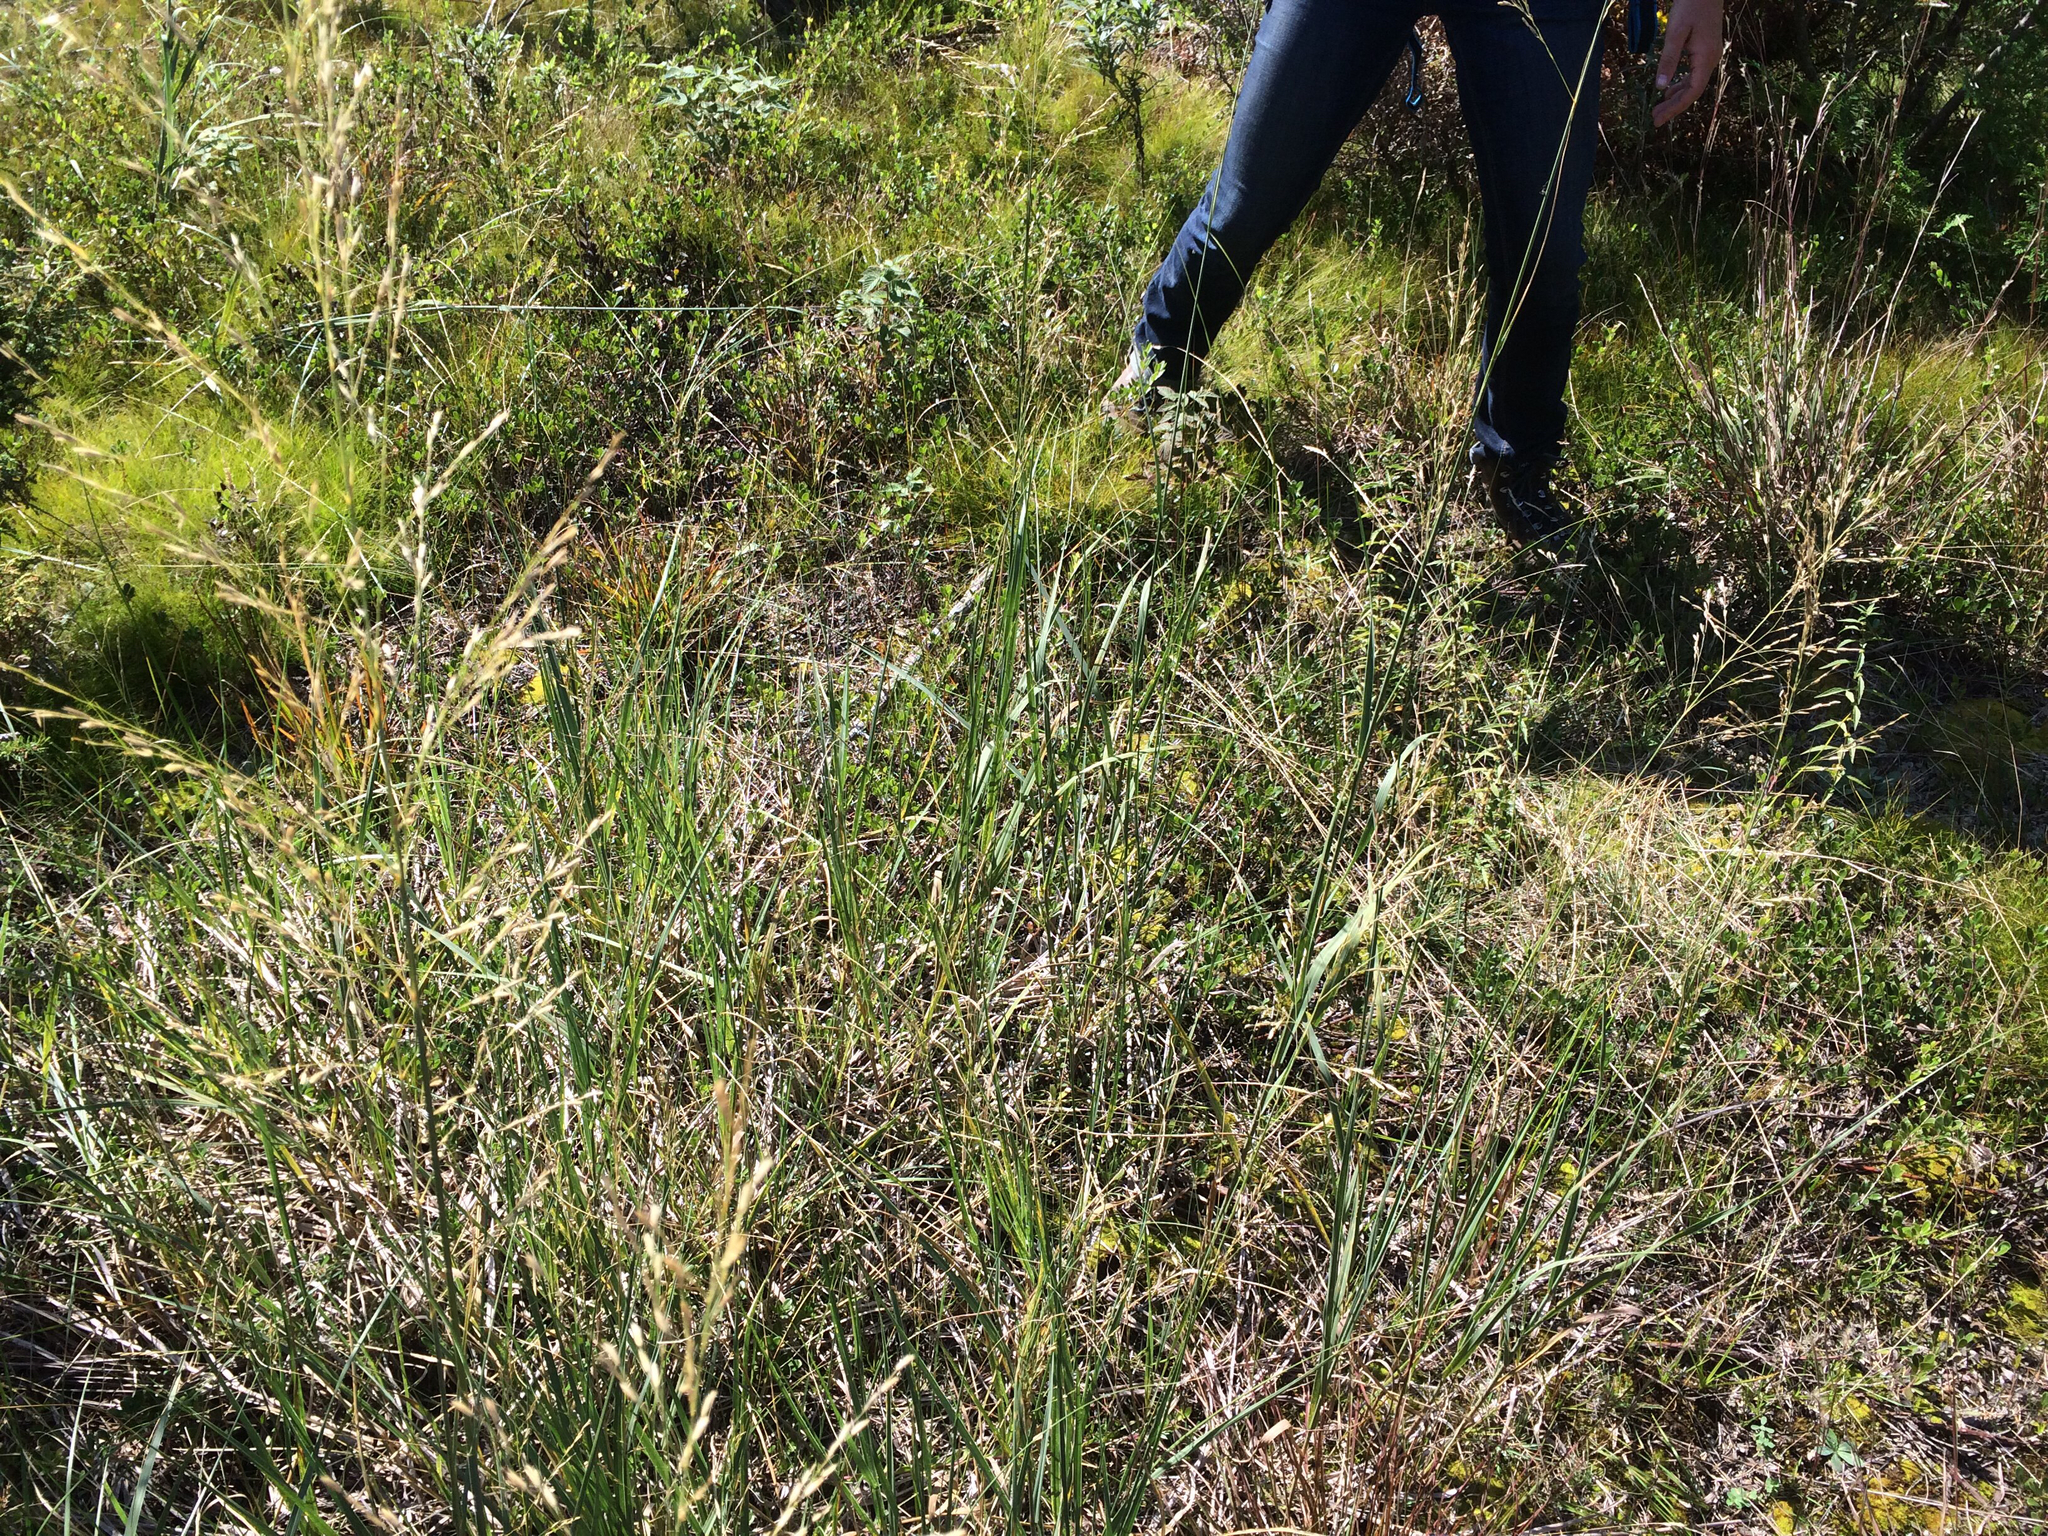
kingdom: Plantae
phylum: Tracheophyta
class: Liliopsida
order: Poales
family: Poaceae
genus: Sporobolus
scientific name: Sporobolus rigidus
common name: Prairie sandreed
